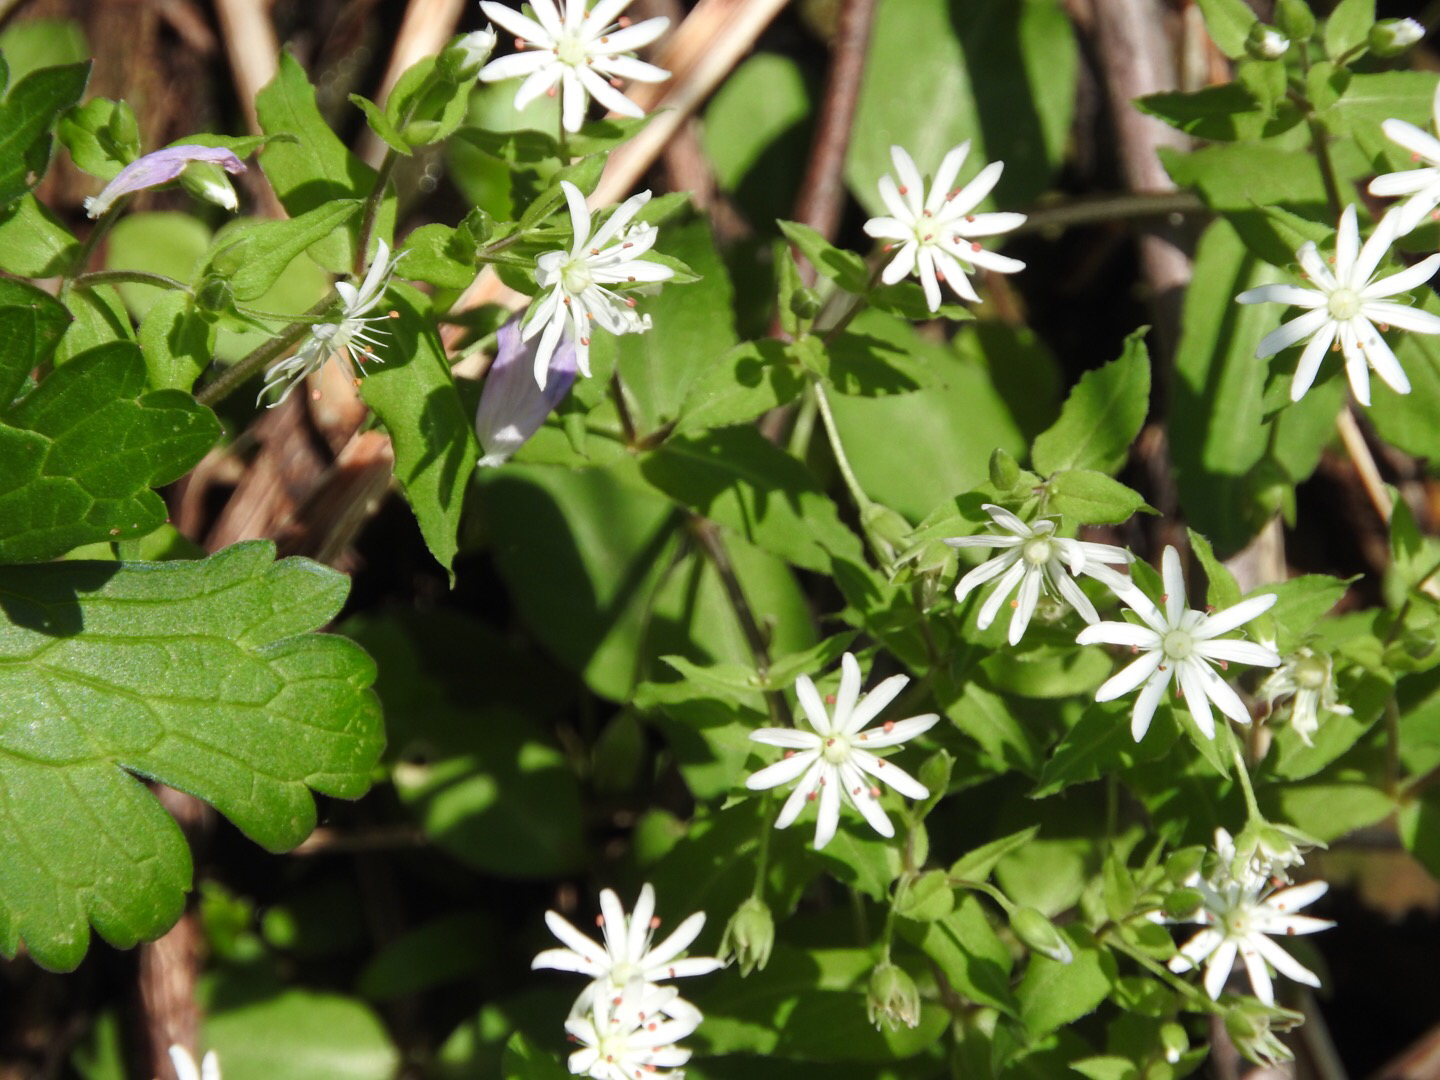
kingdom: Plantae
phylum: Tracheophyta
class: Magnoliopsida
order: Caryophyllales
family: Caryophyllaceae
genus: Stellaria
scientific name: Stellaria pubera
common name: Star chickweed
